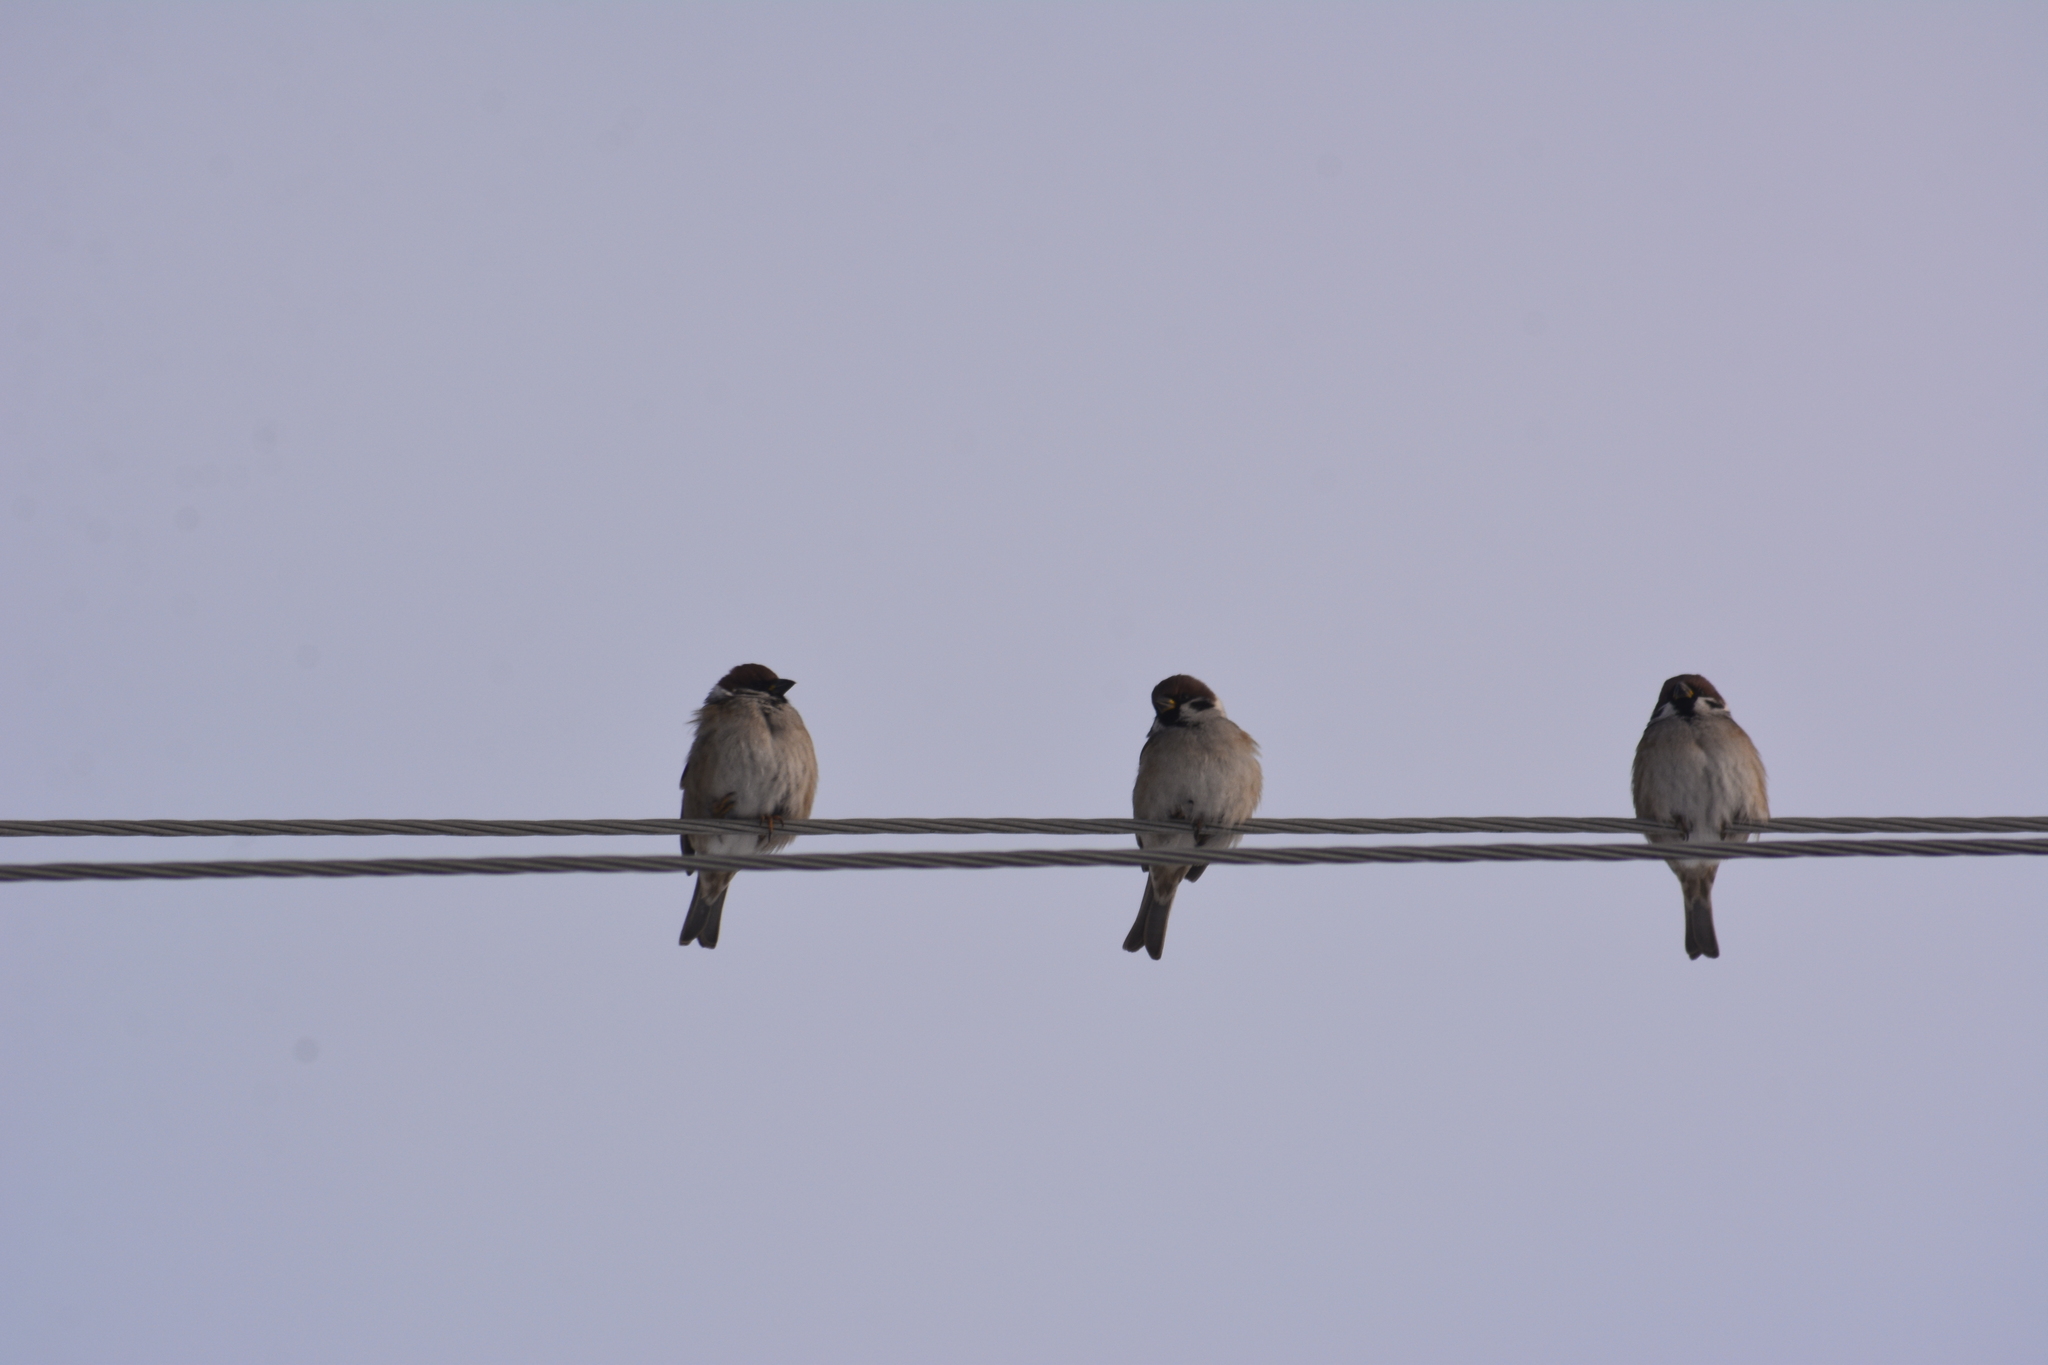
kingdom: Animalia
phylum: Chordata
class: Aves
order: Passeriformes
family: Passeridae
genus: Passer
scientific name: Passer montanus
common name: Eurasian tree sparrow
